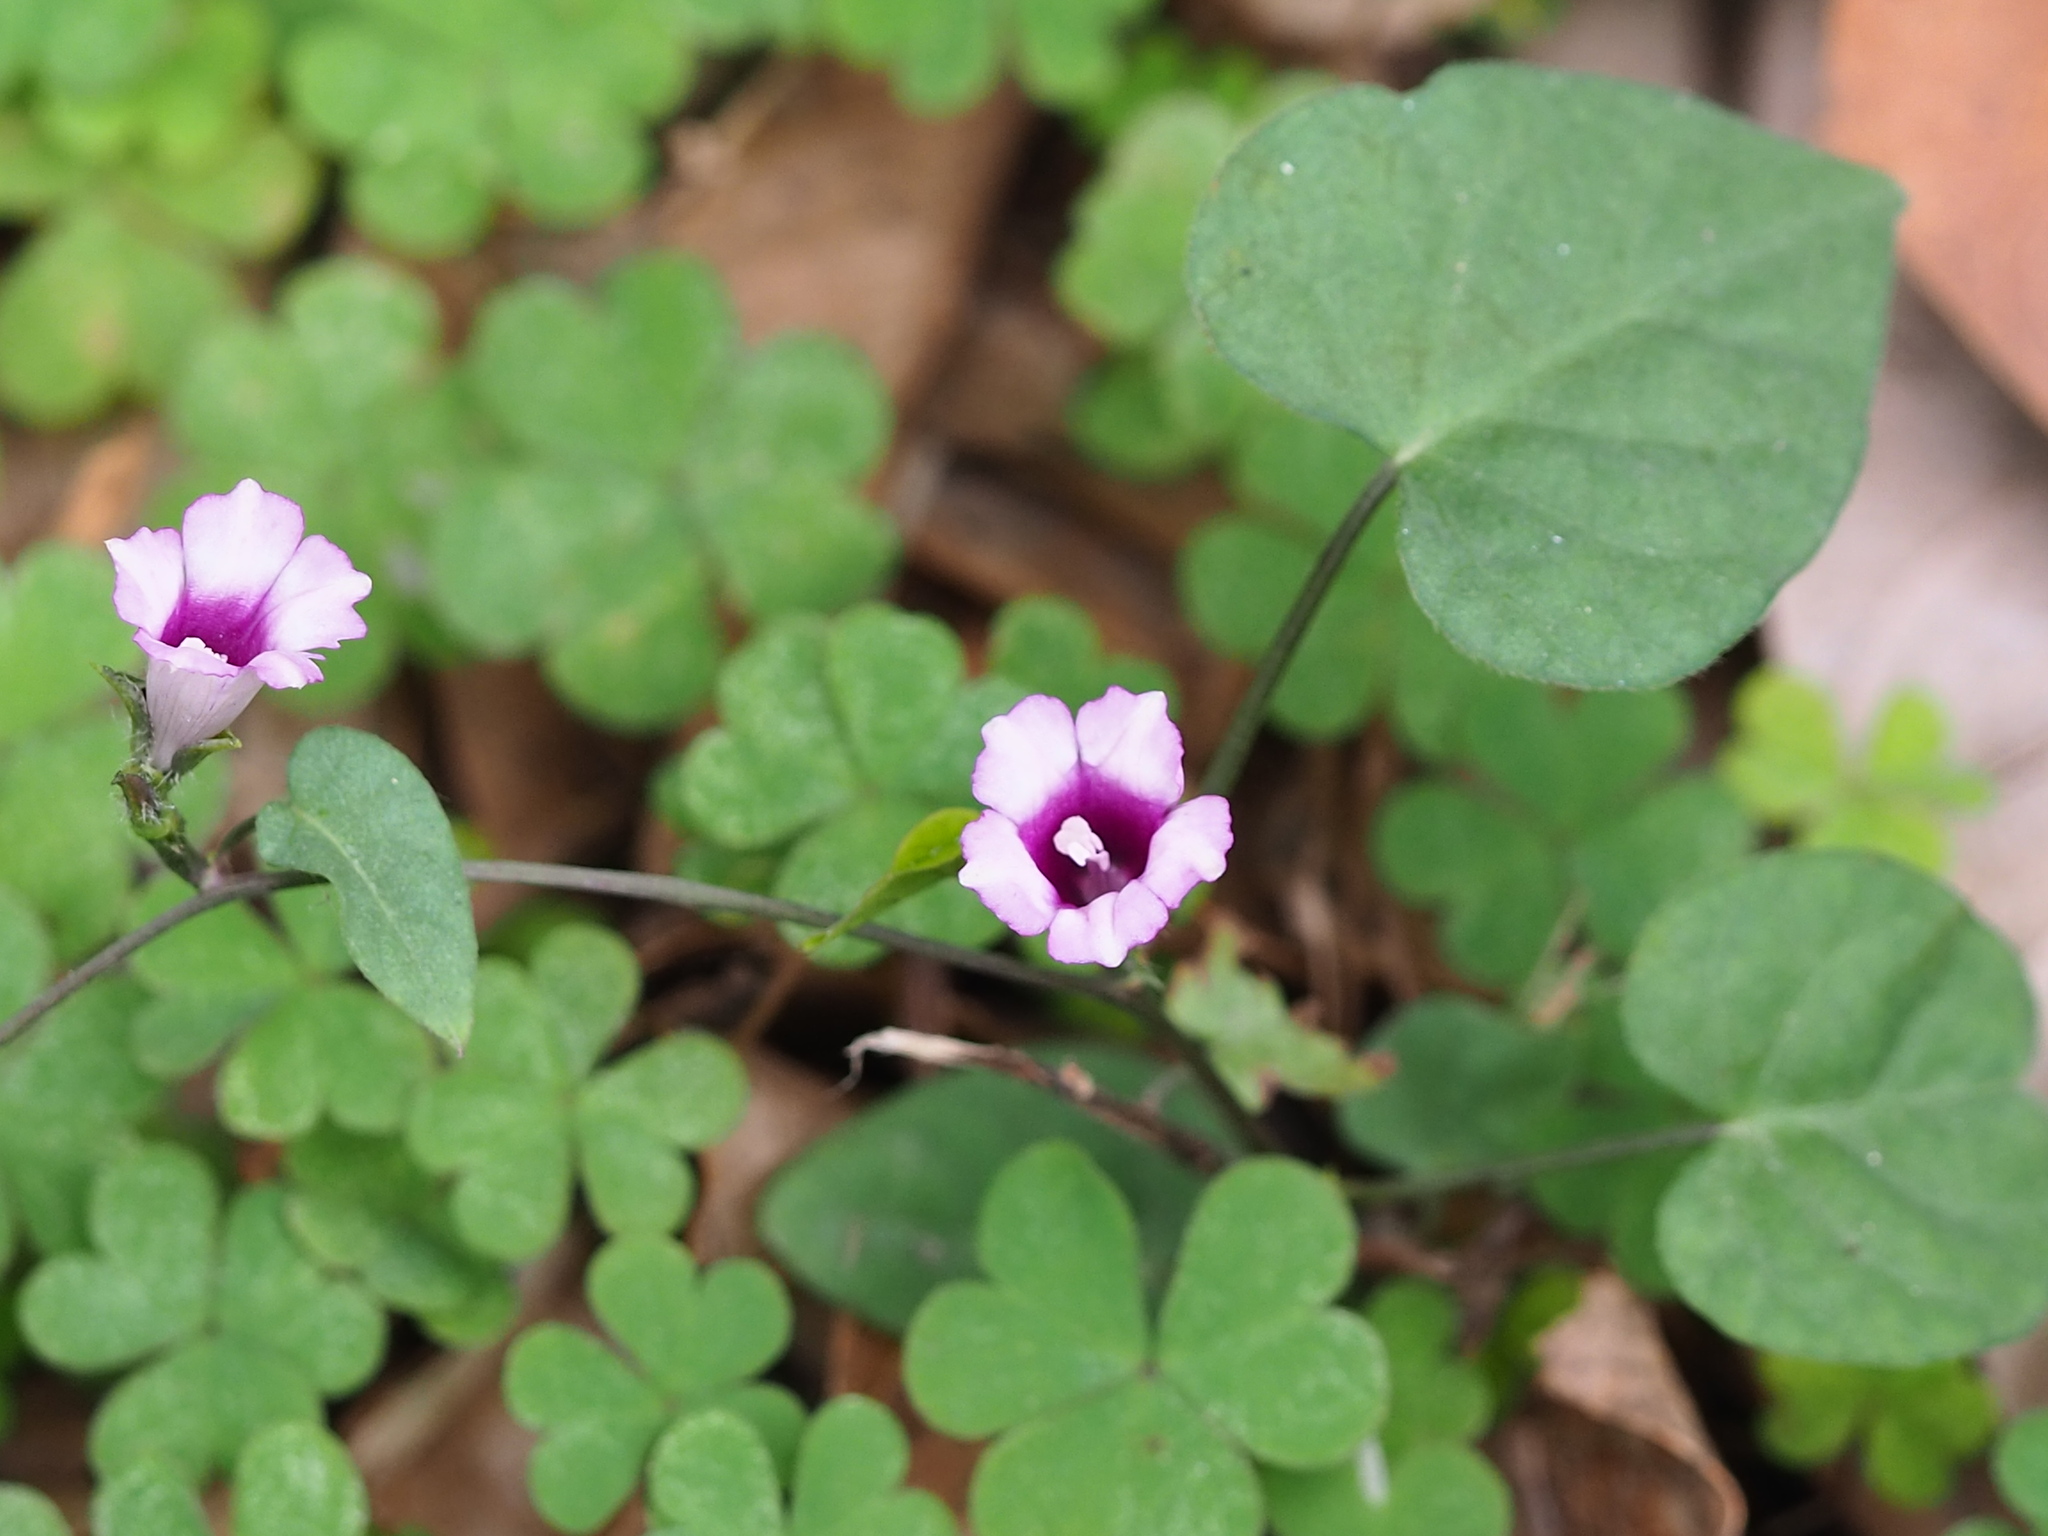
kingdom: Plantae
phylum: Tracheophyta
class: Magnoliopsida
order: Solanales
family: Convolvulaceae
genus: Ipomoea
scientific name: Ipomoea triloba
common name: Little-bell
